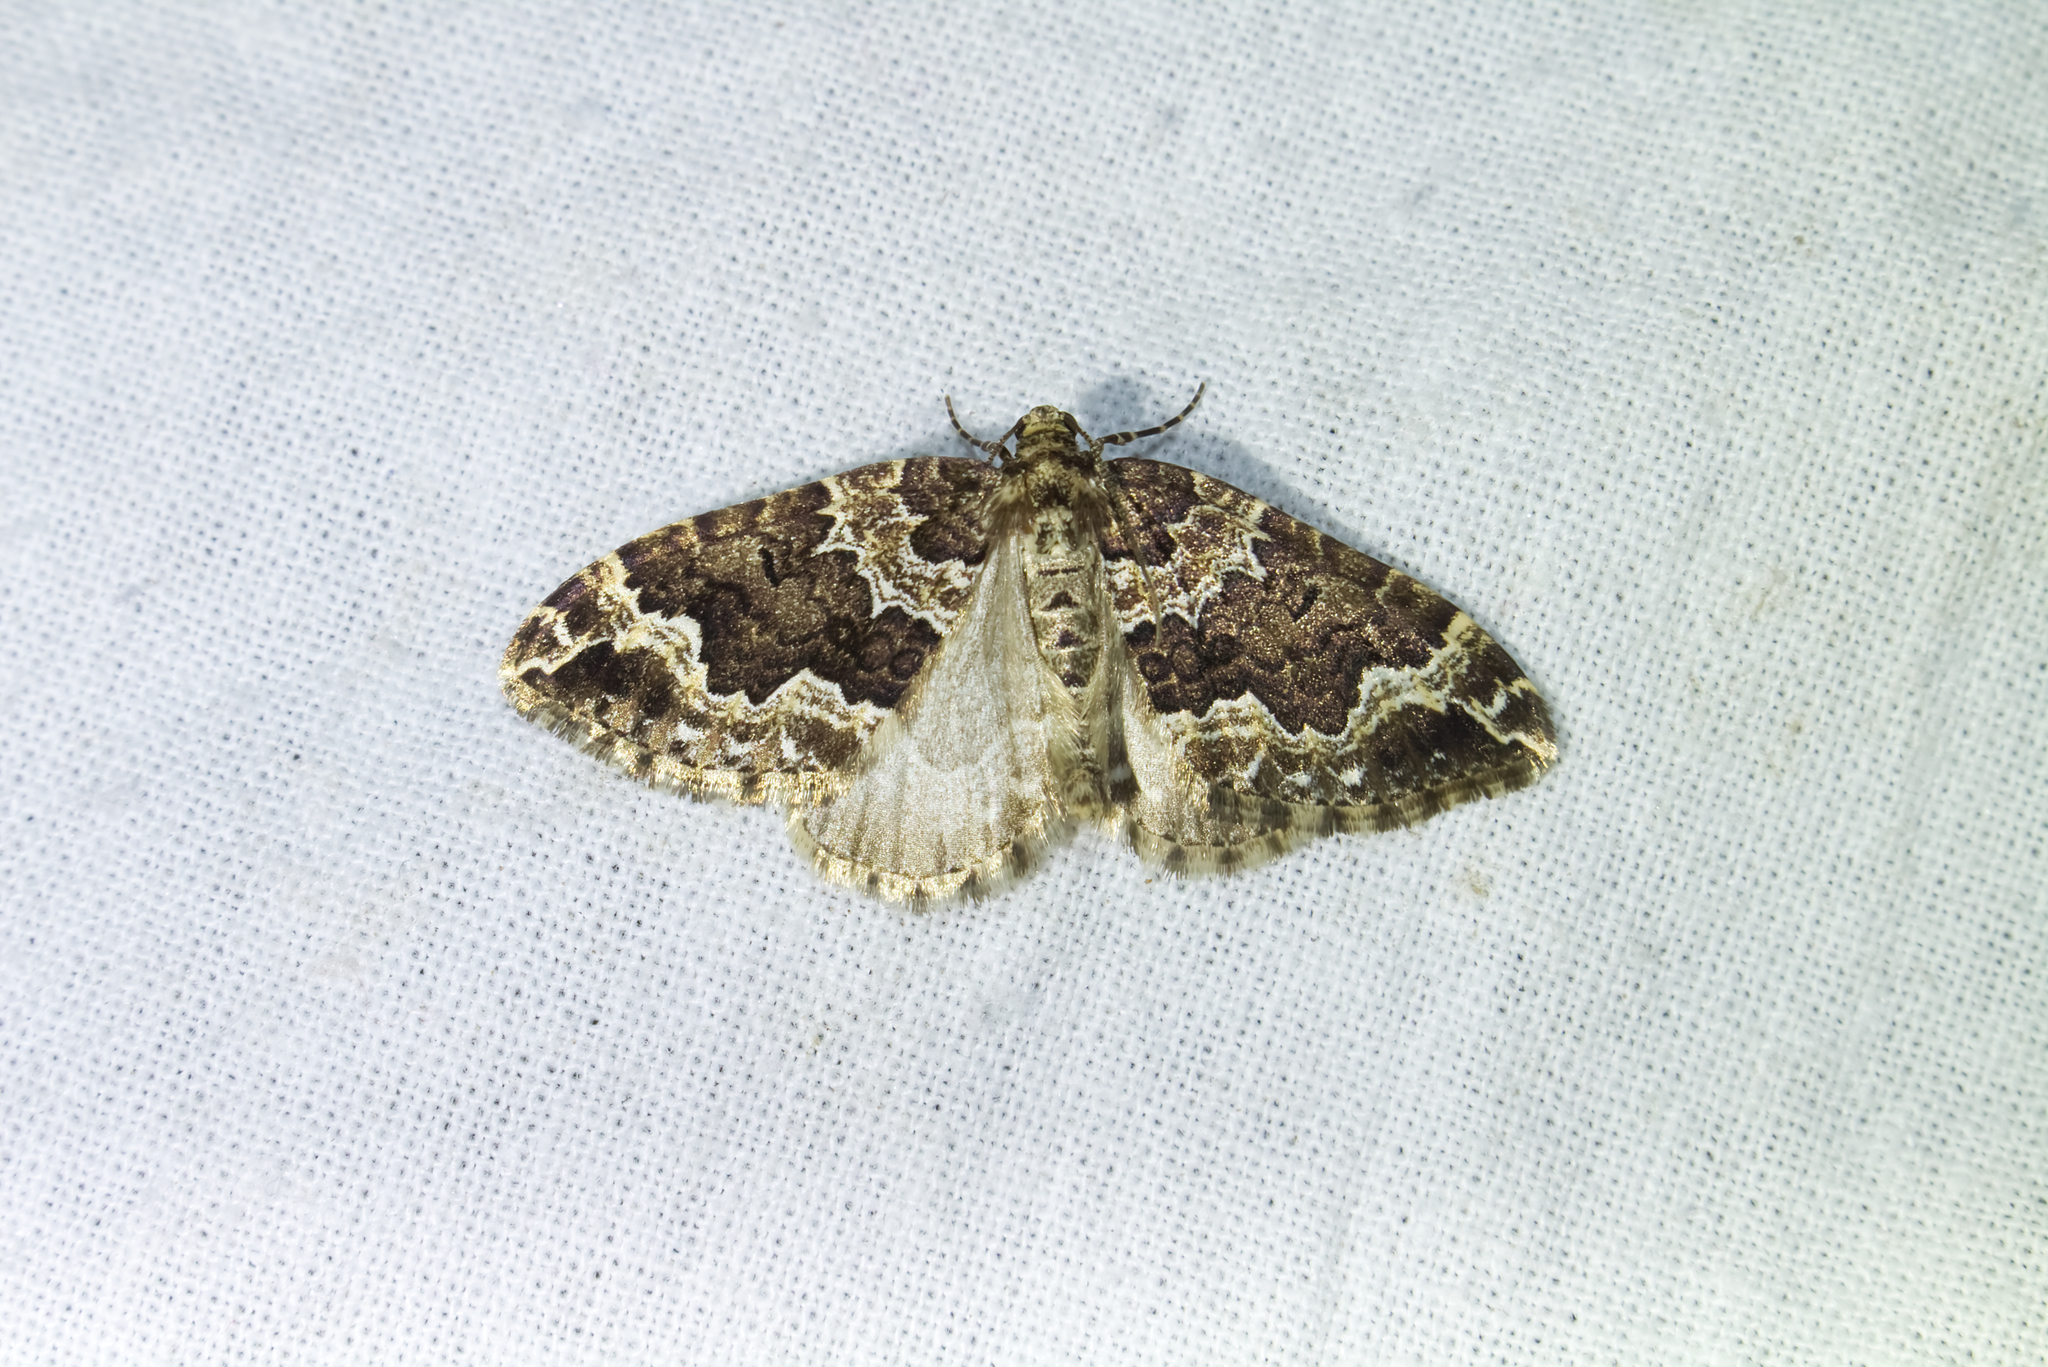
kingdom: Animalia
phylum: Arthropoda
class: Insecta
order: Lepidoptera
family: Geometridae
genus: Lampropteryx
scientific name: Lampropteryx suffumata
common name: Water carpet
